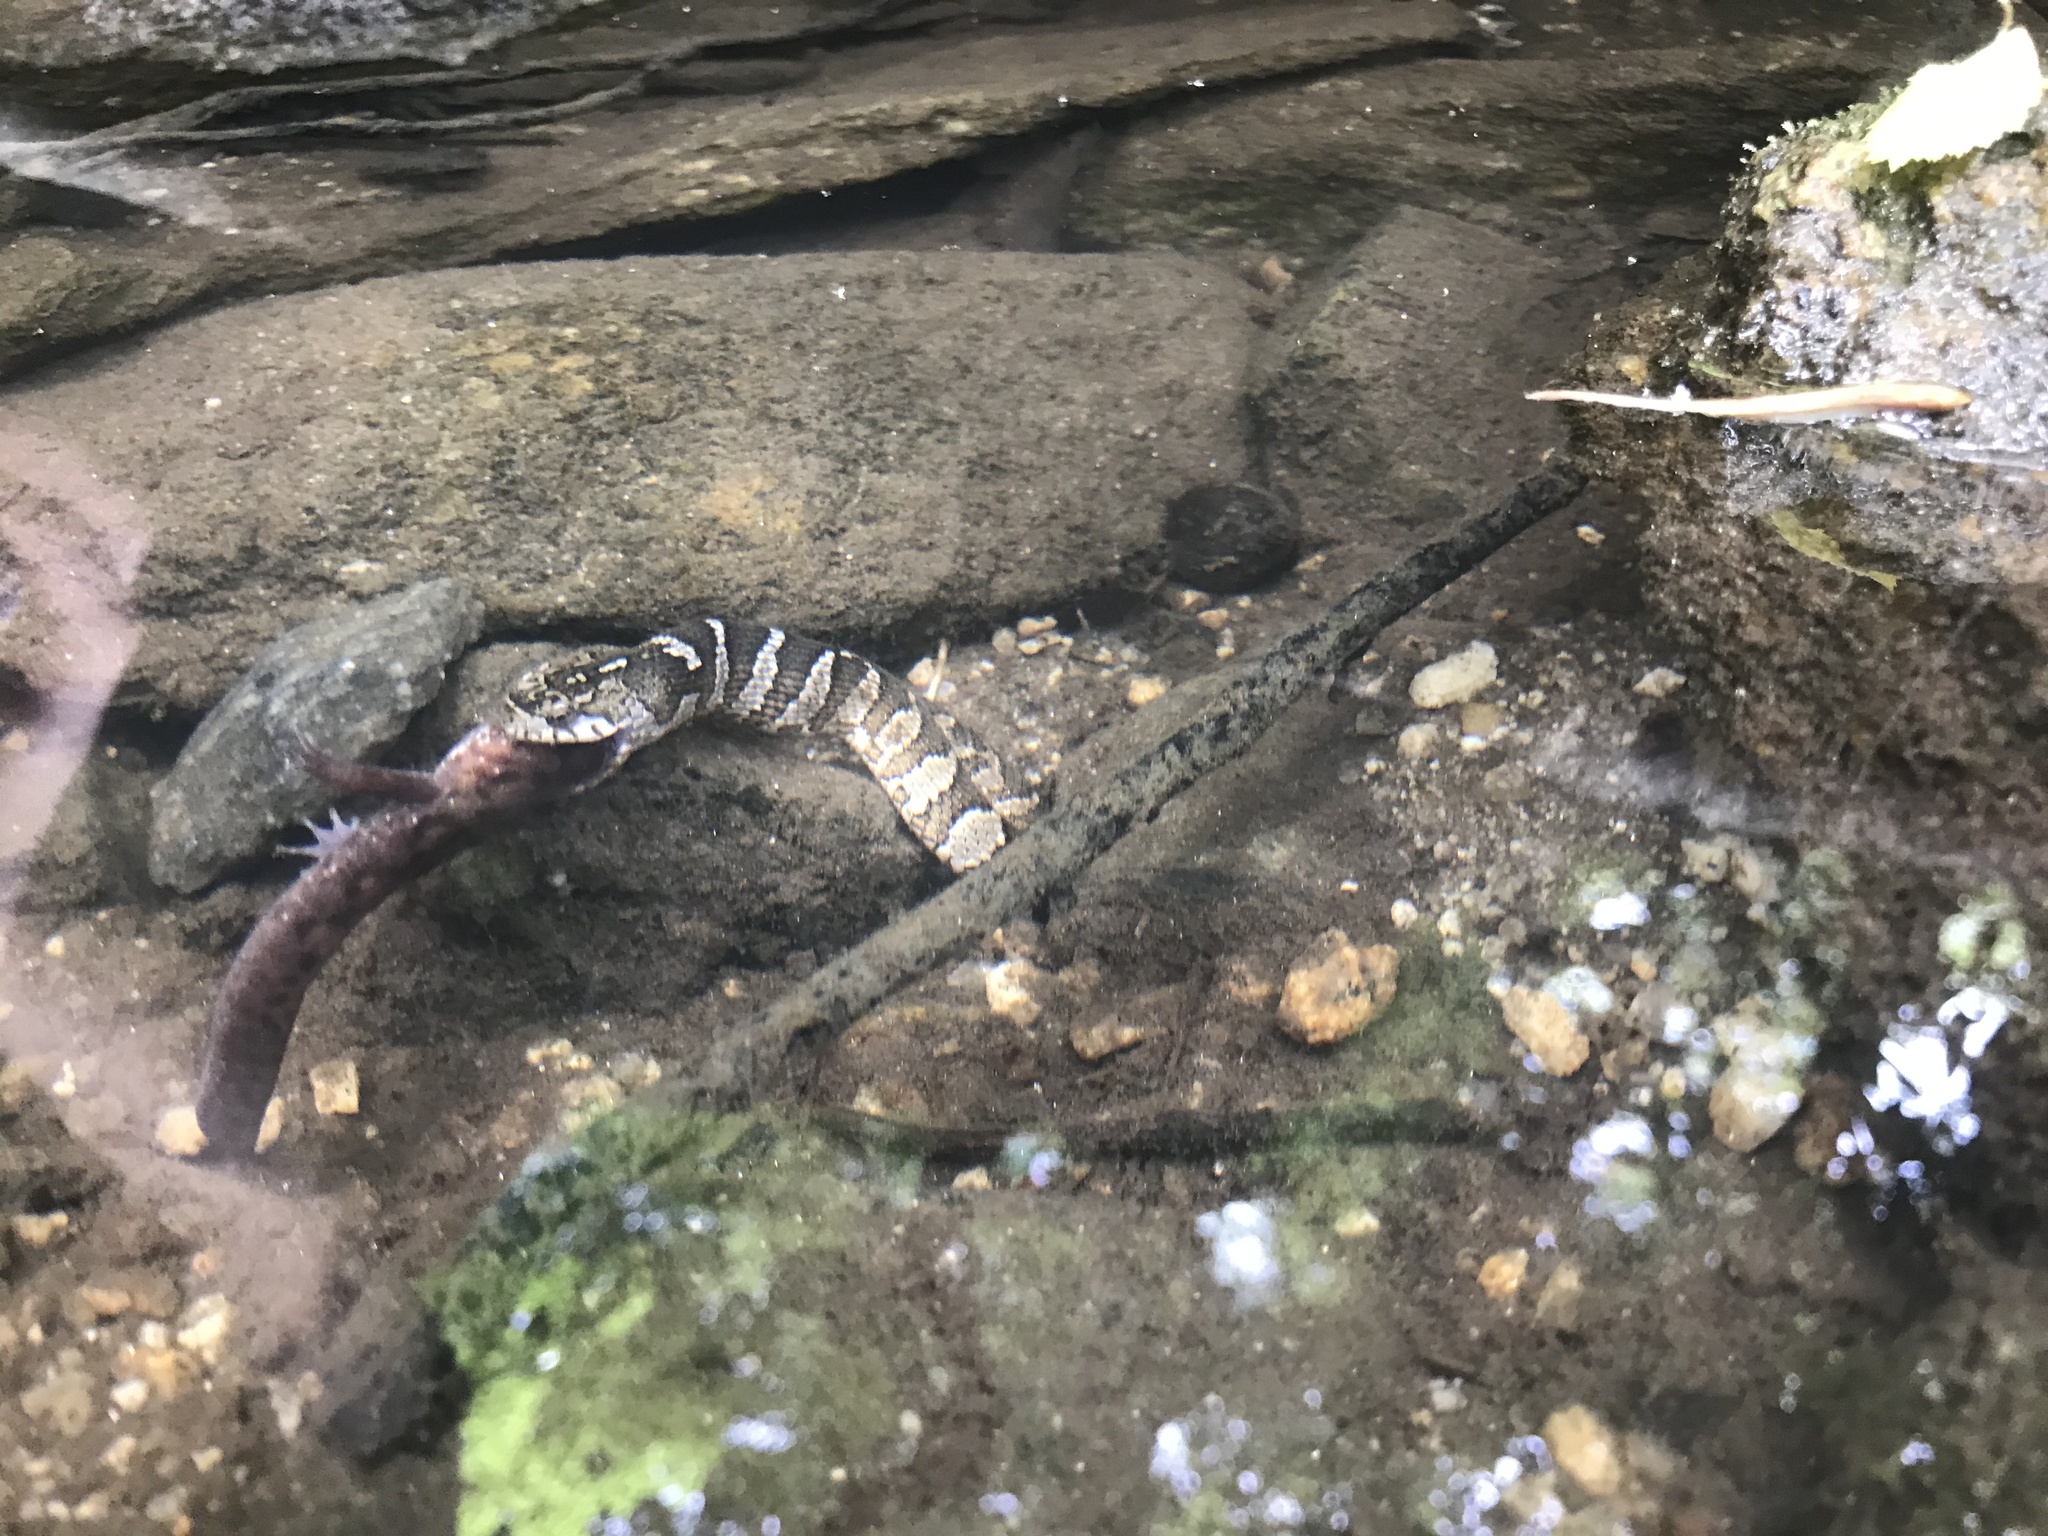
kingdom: Animalia
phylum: Chordata
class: Squamata
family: Colubridae
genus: Nerodia
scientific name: Nerodia sipedon
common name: Northern water snake
